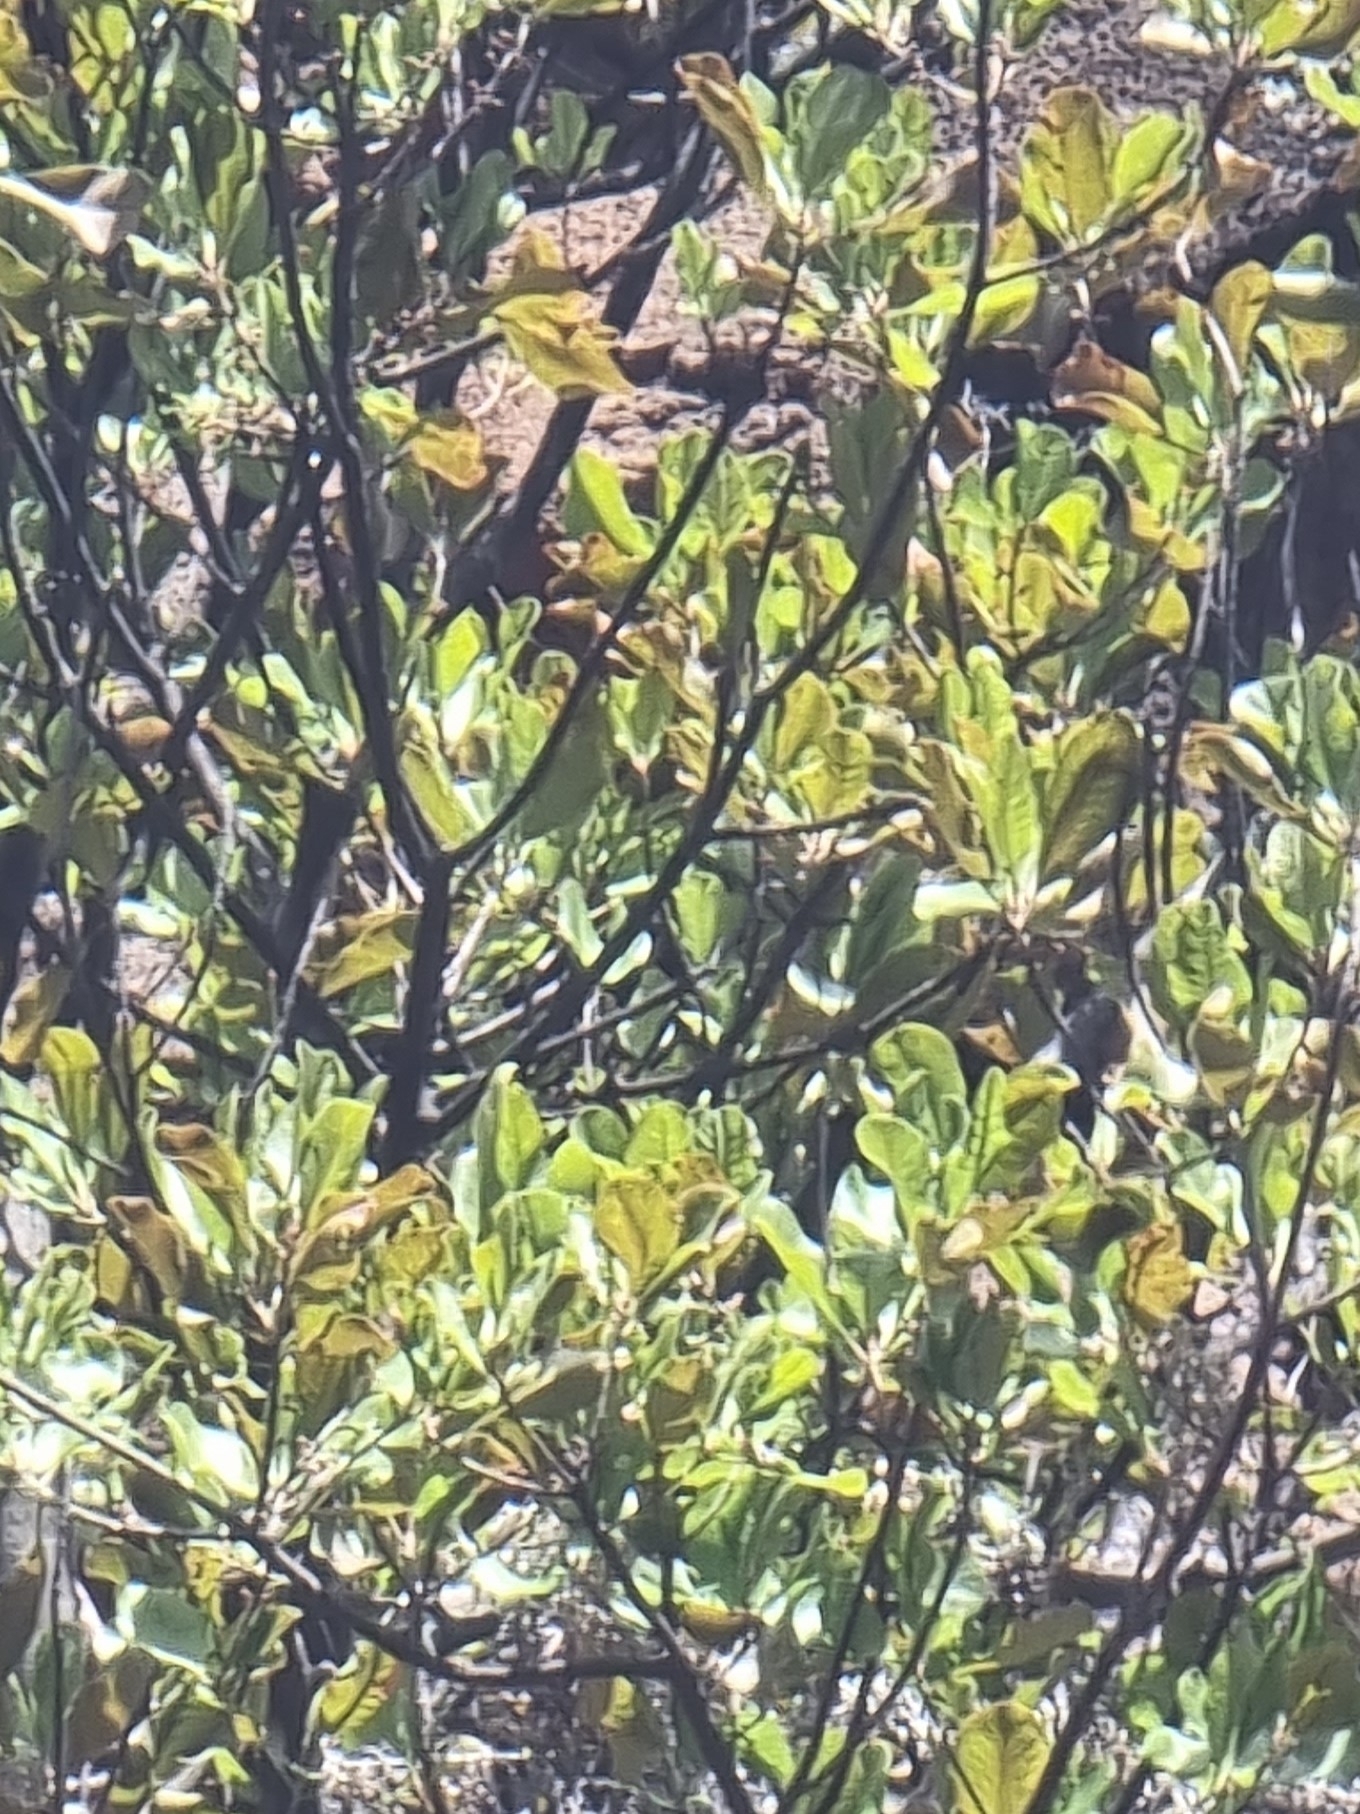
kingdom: Plantae
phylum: Tracheophyta
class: Magnoliopsida
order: Ericales
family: Sapotaceae
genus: Sideroxylon
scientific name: Sideroxylon mirmulans
